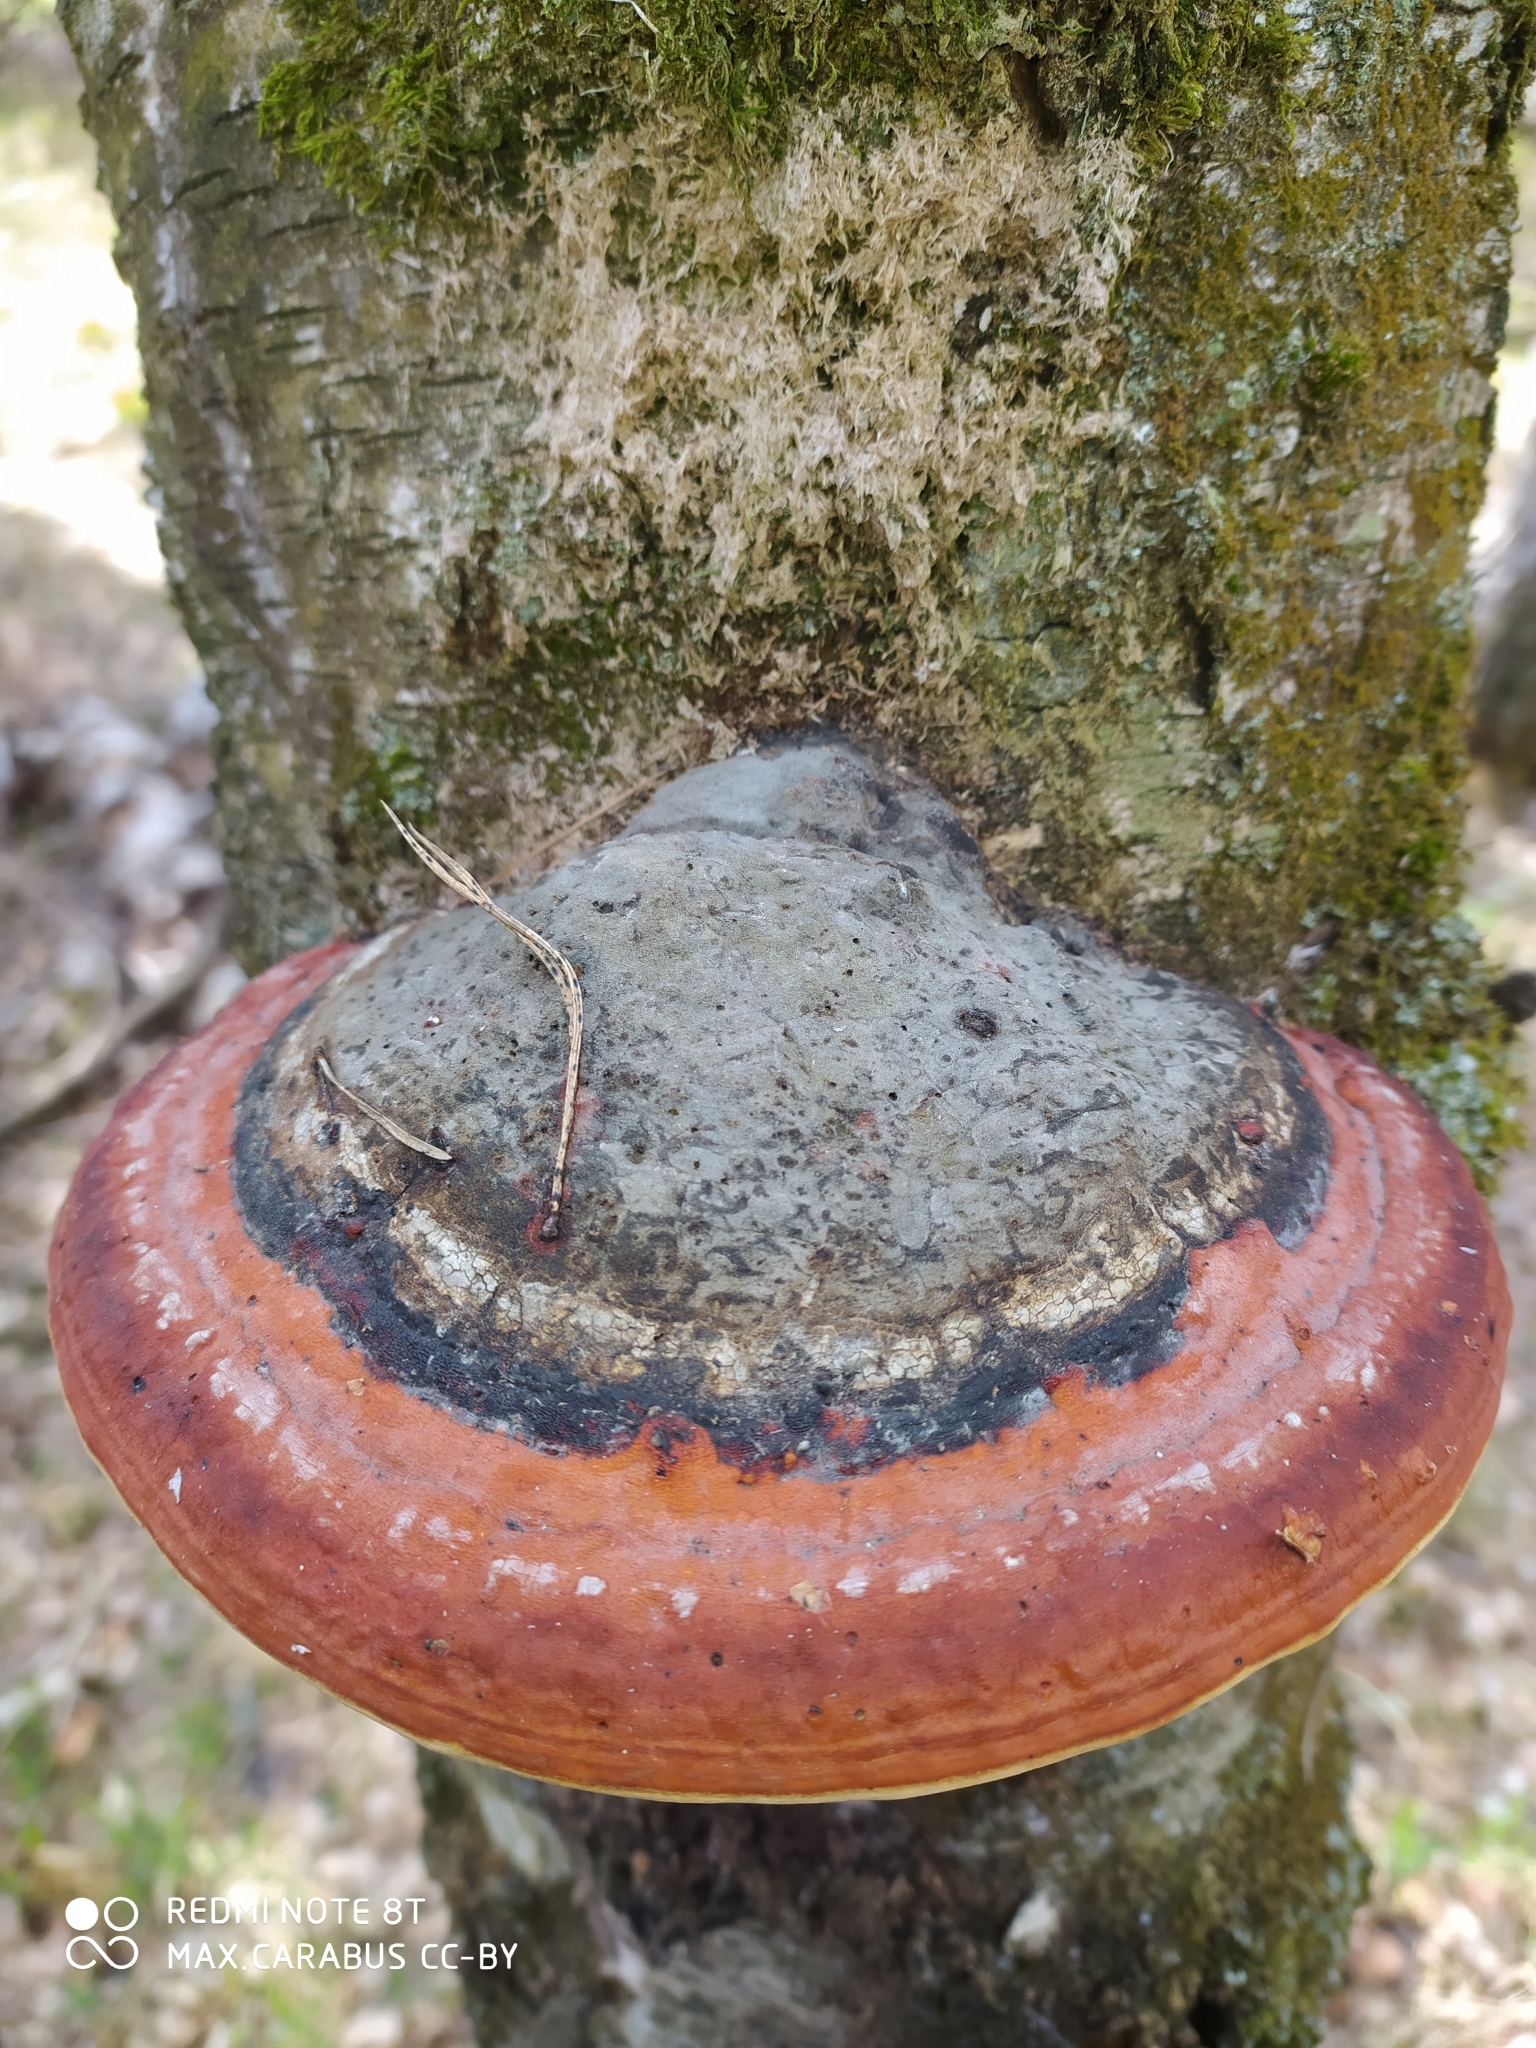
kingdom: Fungi
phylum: Basidiomycota
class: Agaricomycetes
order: Polyporales
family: Fomitopsidaceae
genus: Fomitopsis
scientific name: Fomitopsis pinicola
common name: Red-belted bracket
